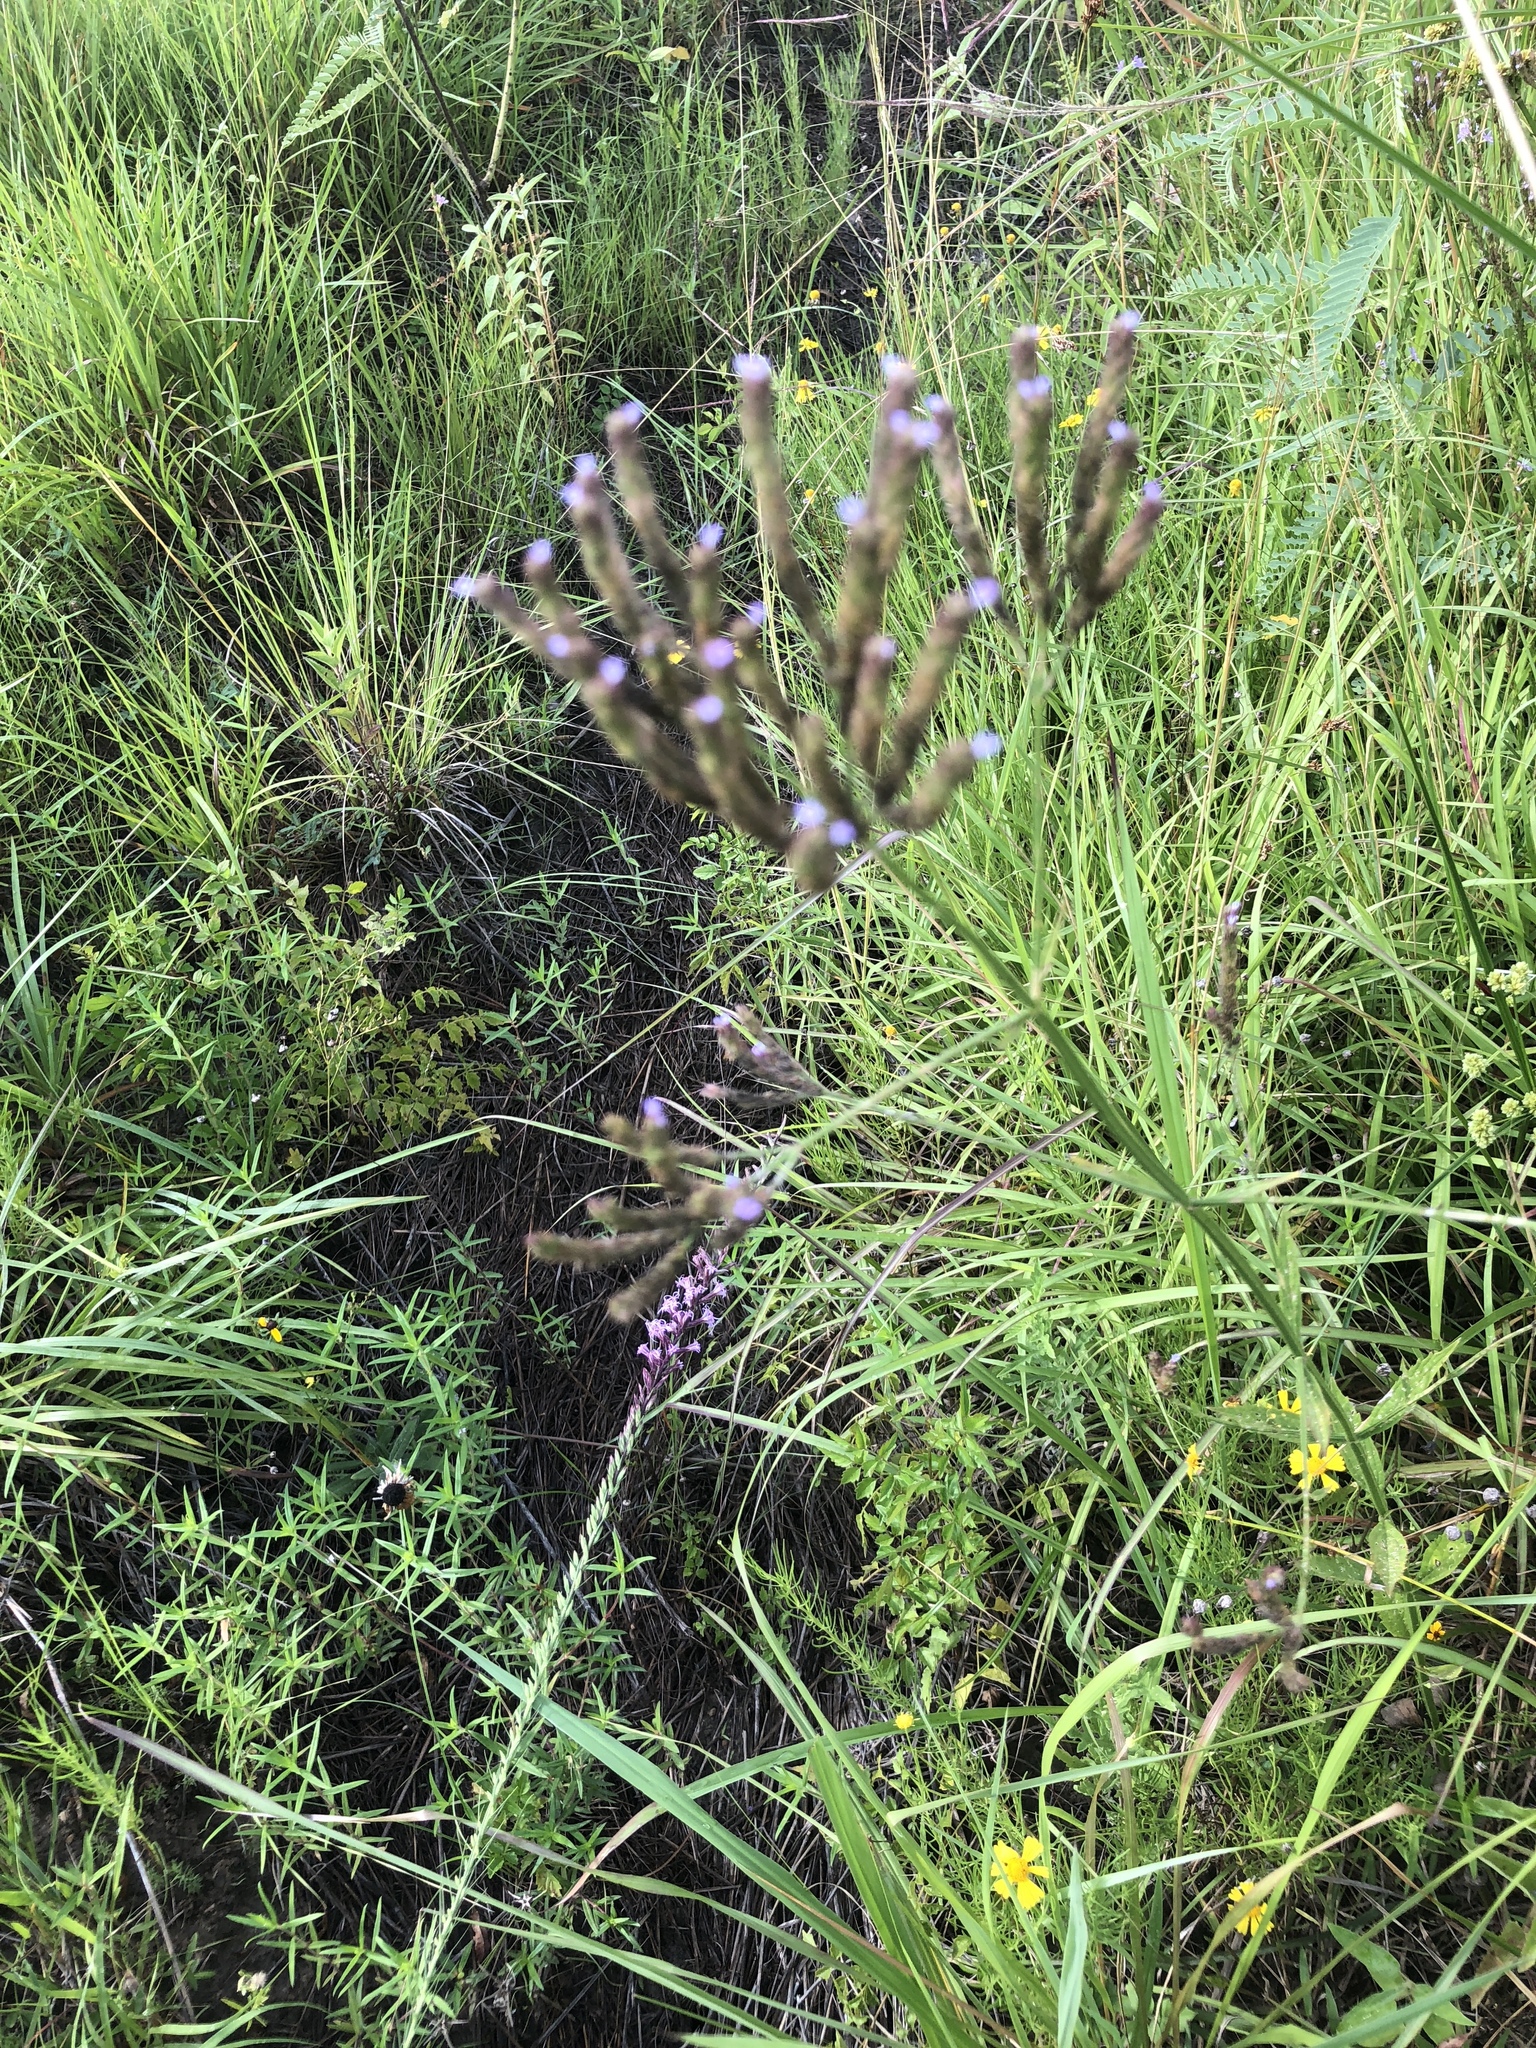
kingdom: Plantae
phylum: Tracheophyta
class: Magnoliopsida
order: Lamiales
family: Verbenaceae
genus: Verbena
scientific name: Verbena brasiliensis
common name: Brazilian vervain
